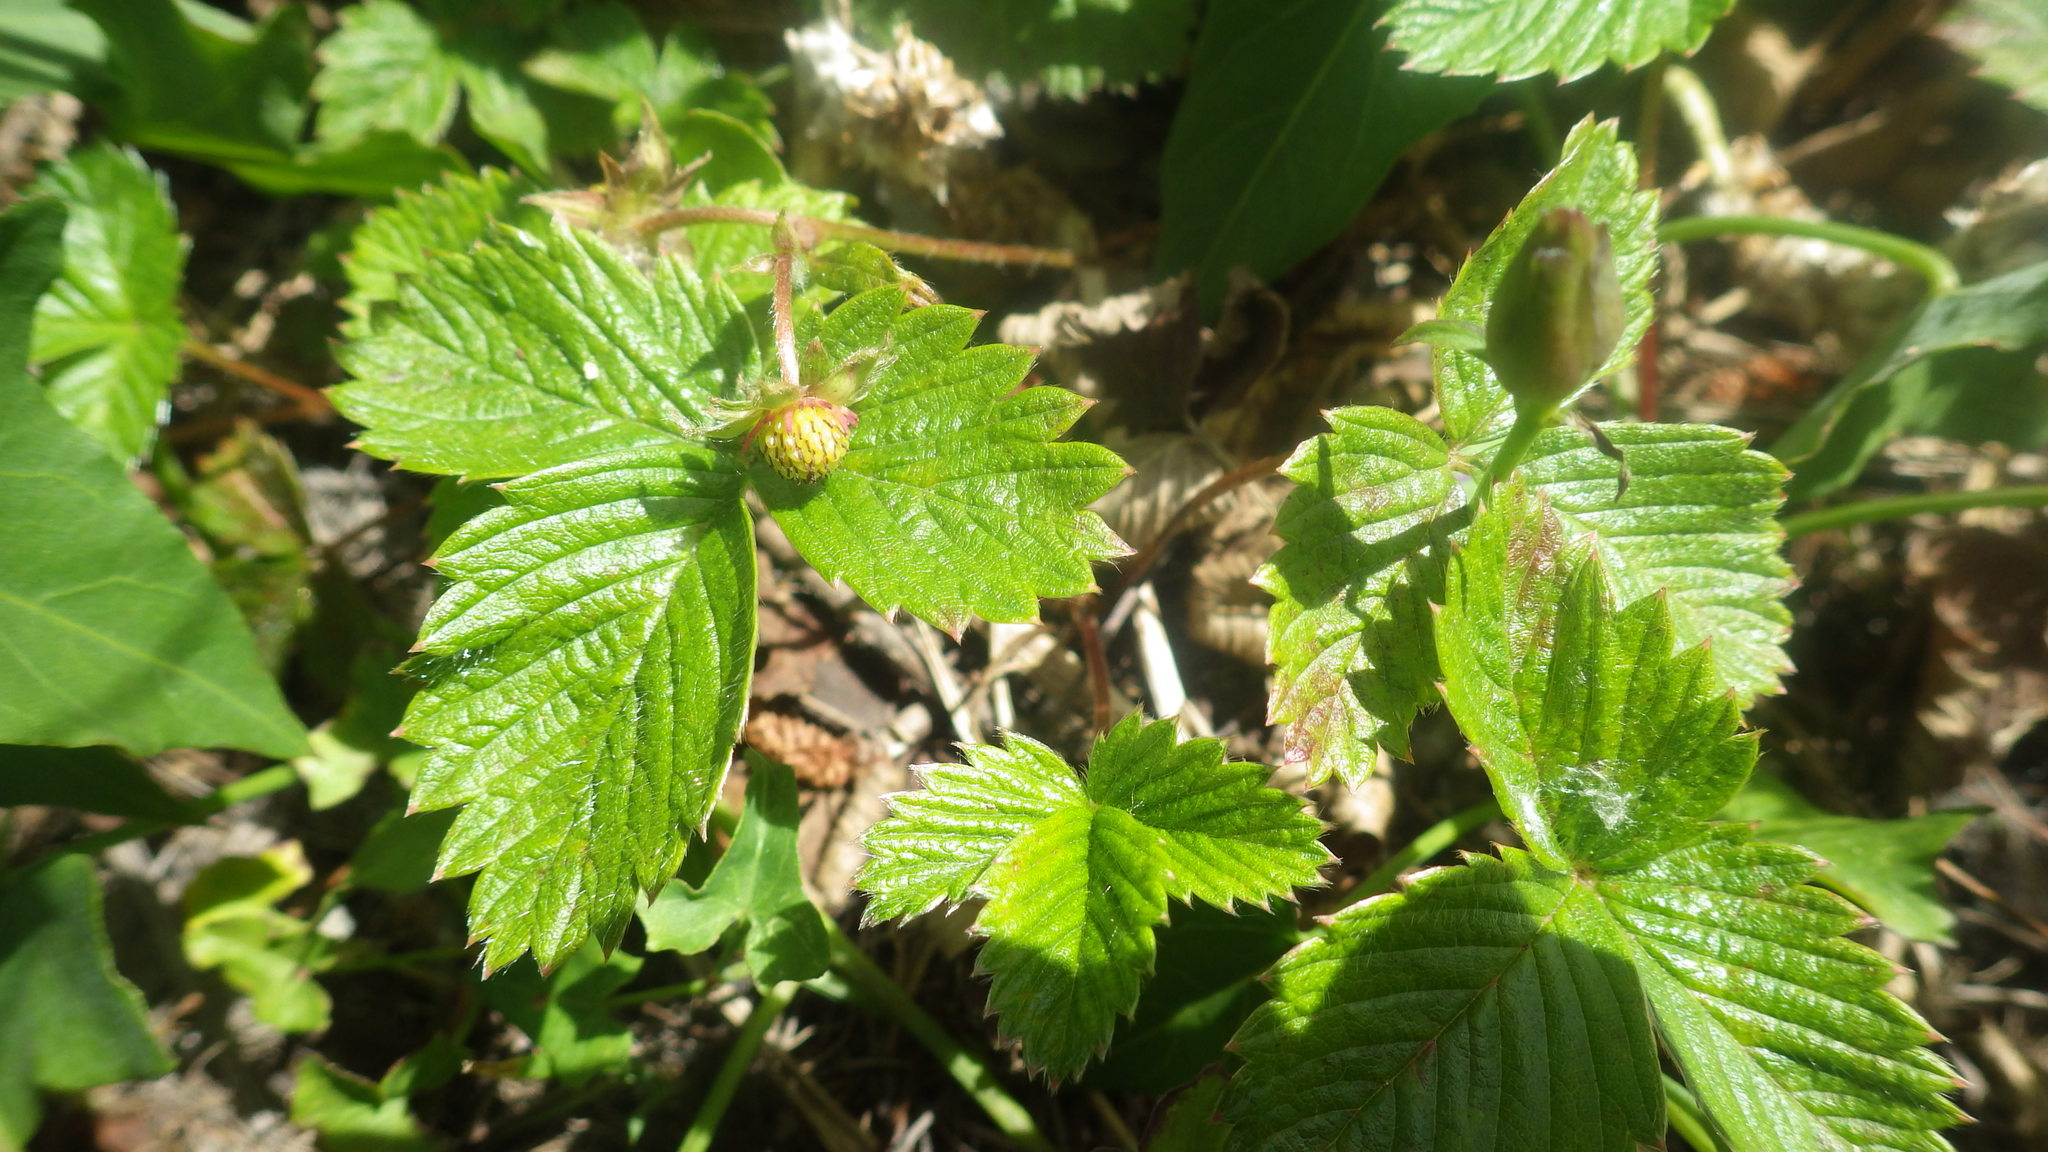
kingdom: Plantae
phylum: Tracheophyta
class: Magnoliopsida
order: Rosales
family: Rosaceae
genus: Fragaria
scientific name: Fragaria vesca
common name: Wild strawberry
